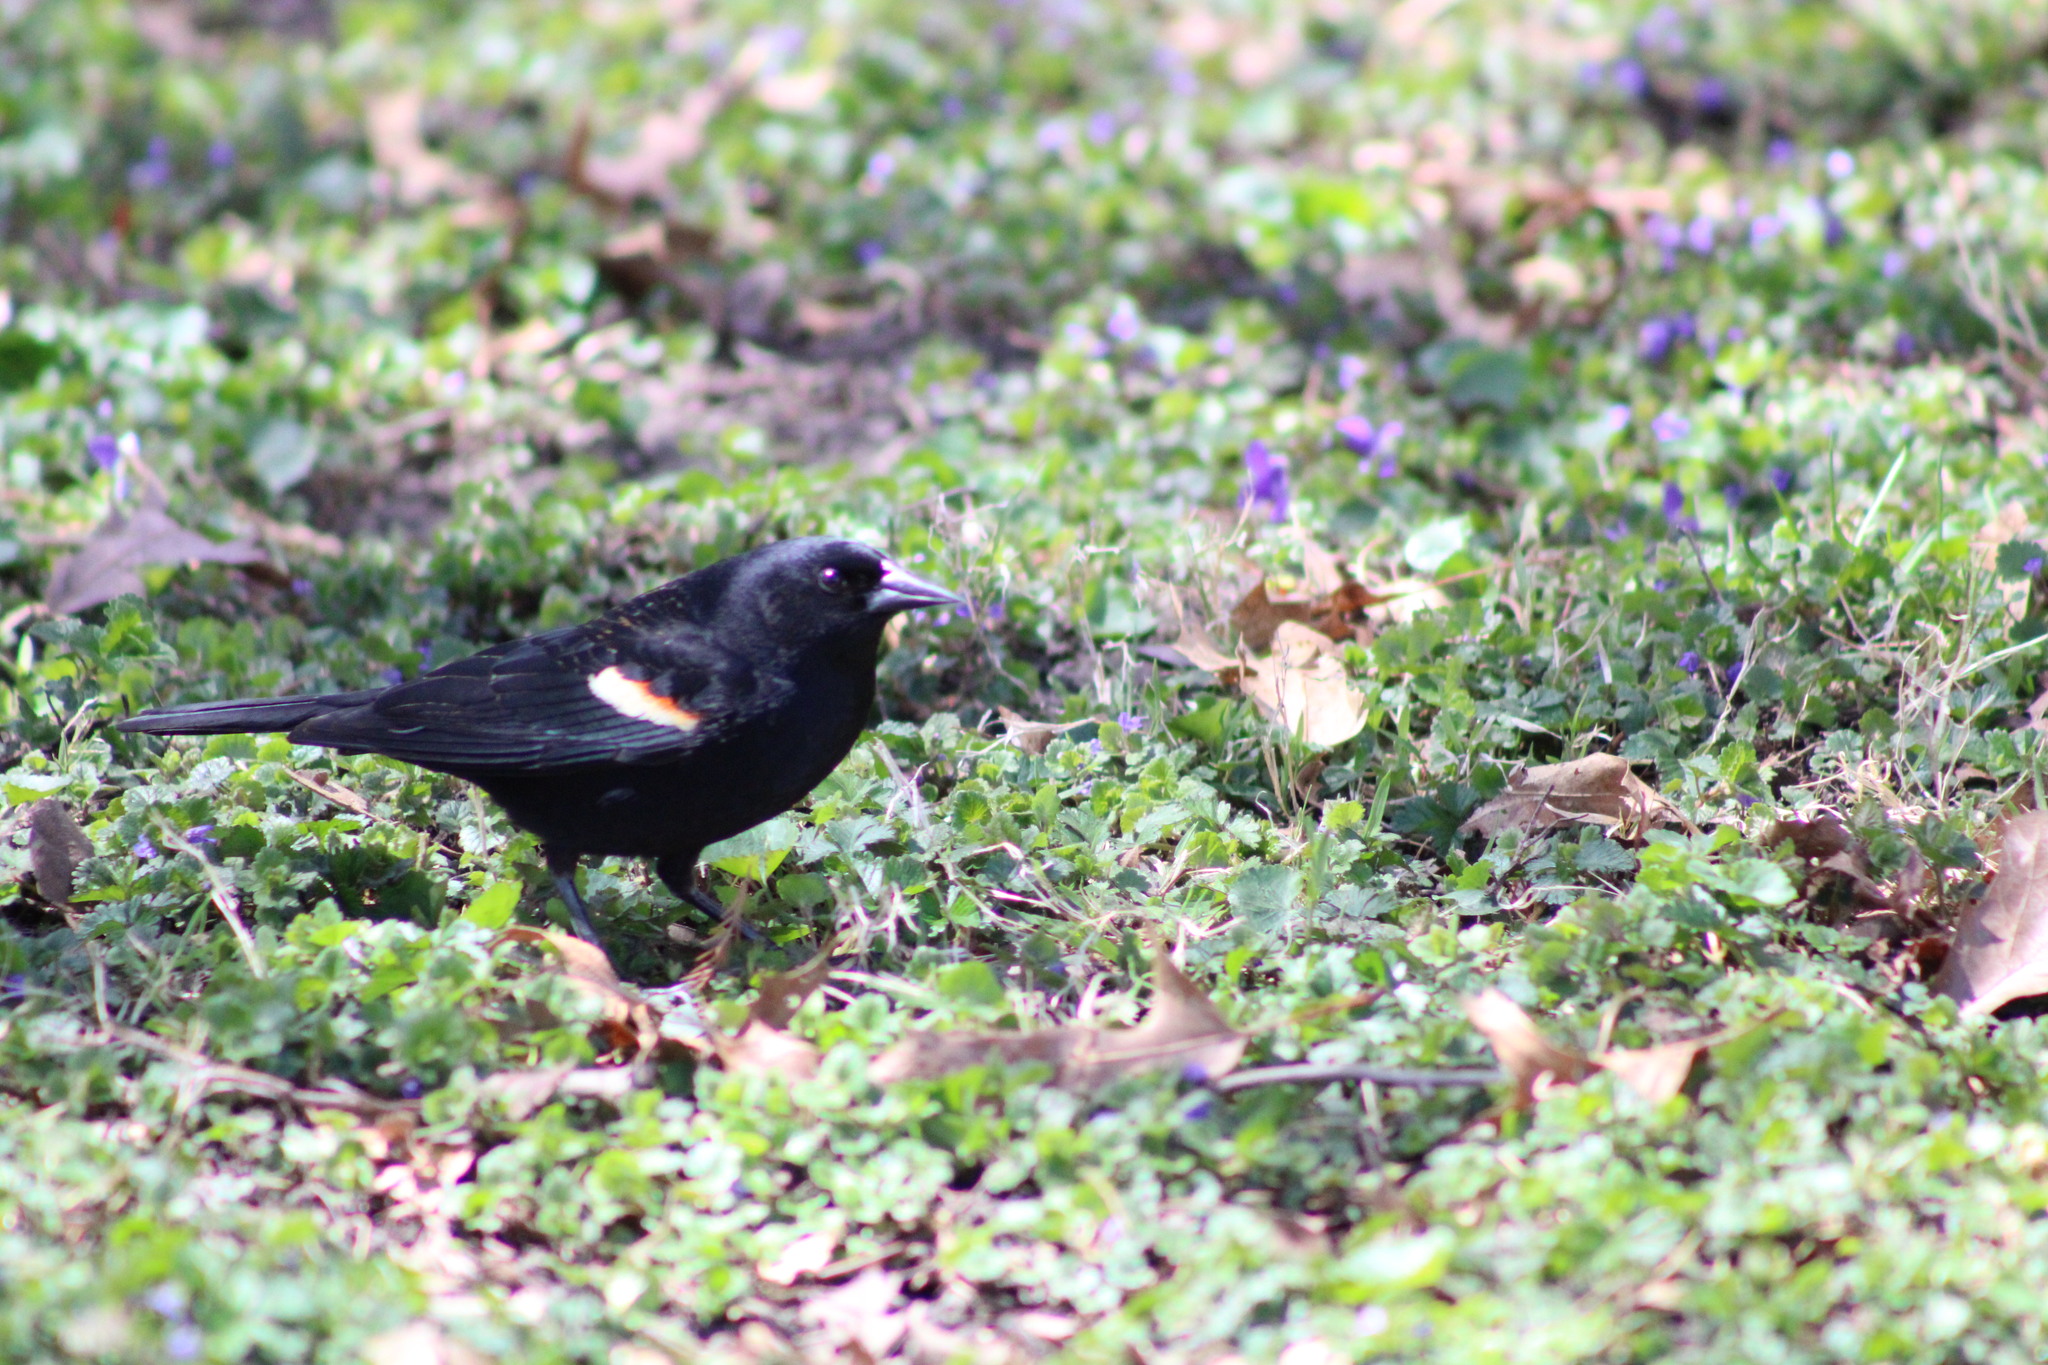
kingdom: Animalia
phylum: Chordata
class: Aves
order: Passeriformes
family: Icteridae
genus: Agelaius
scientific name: Agelaius phoeniceus
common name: Red-winged blackbird
